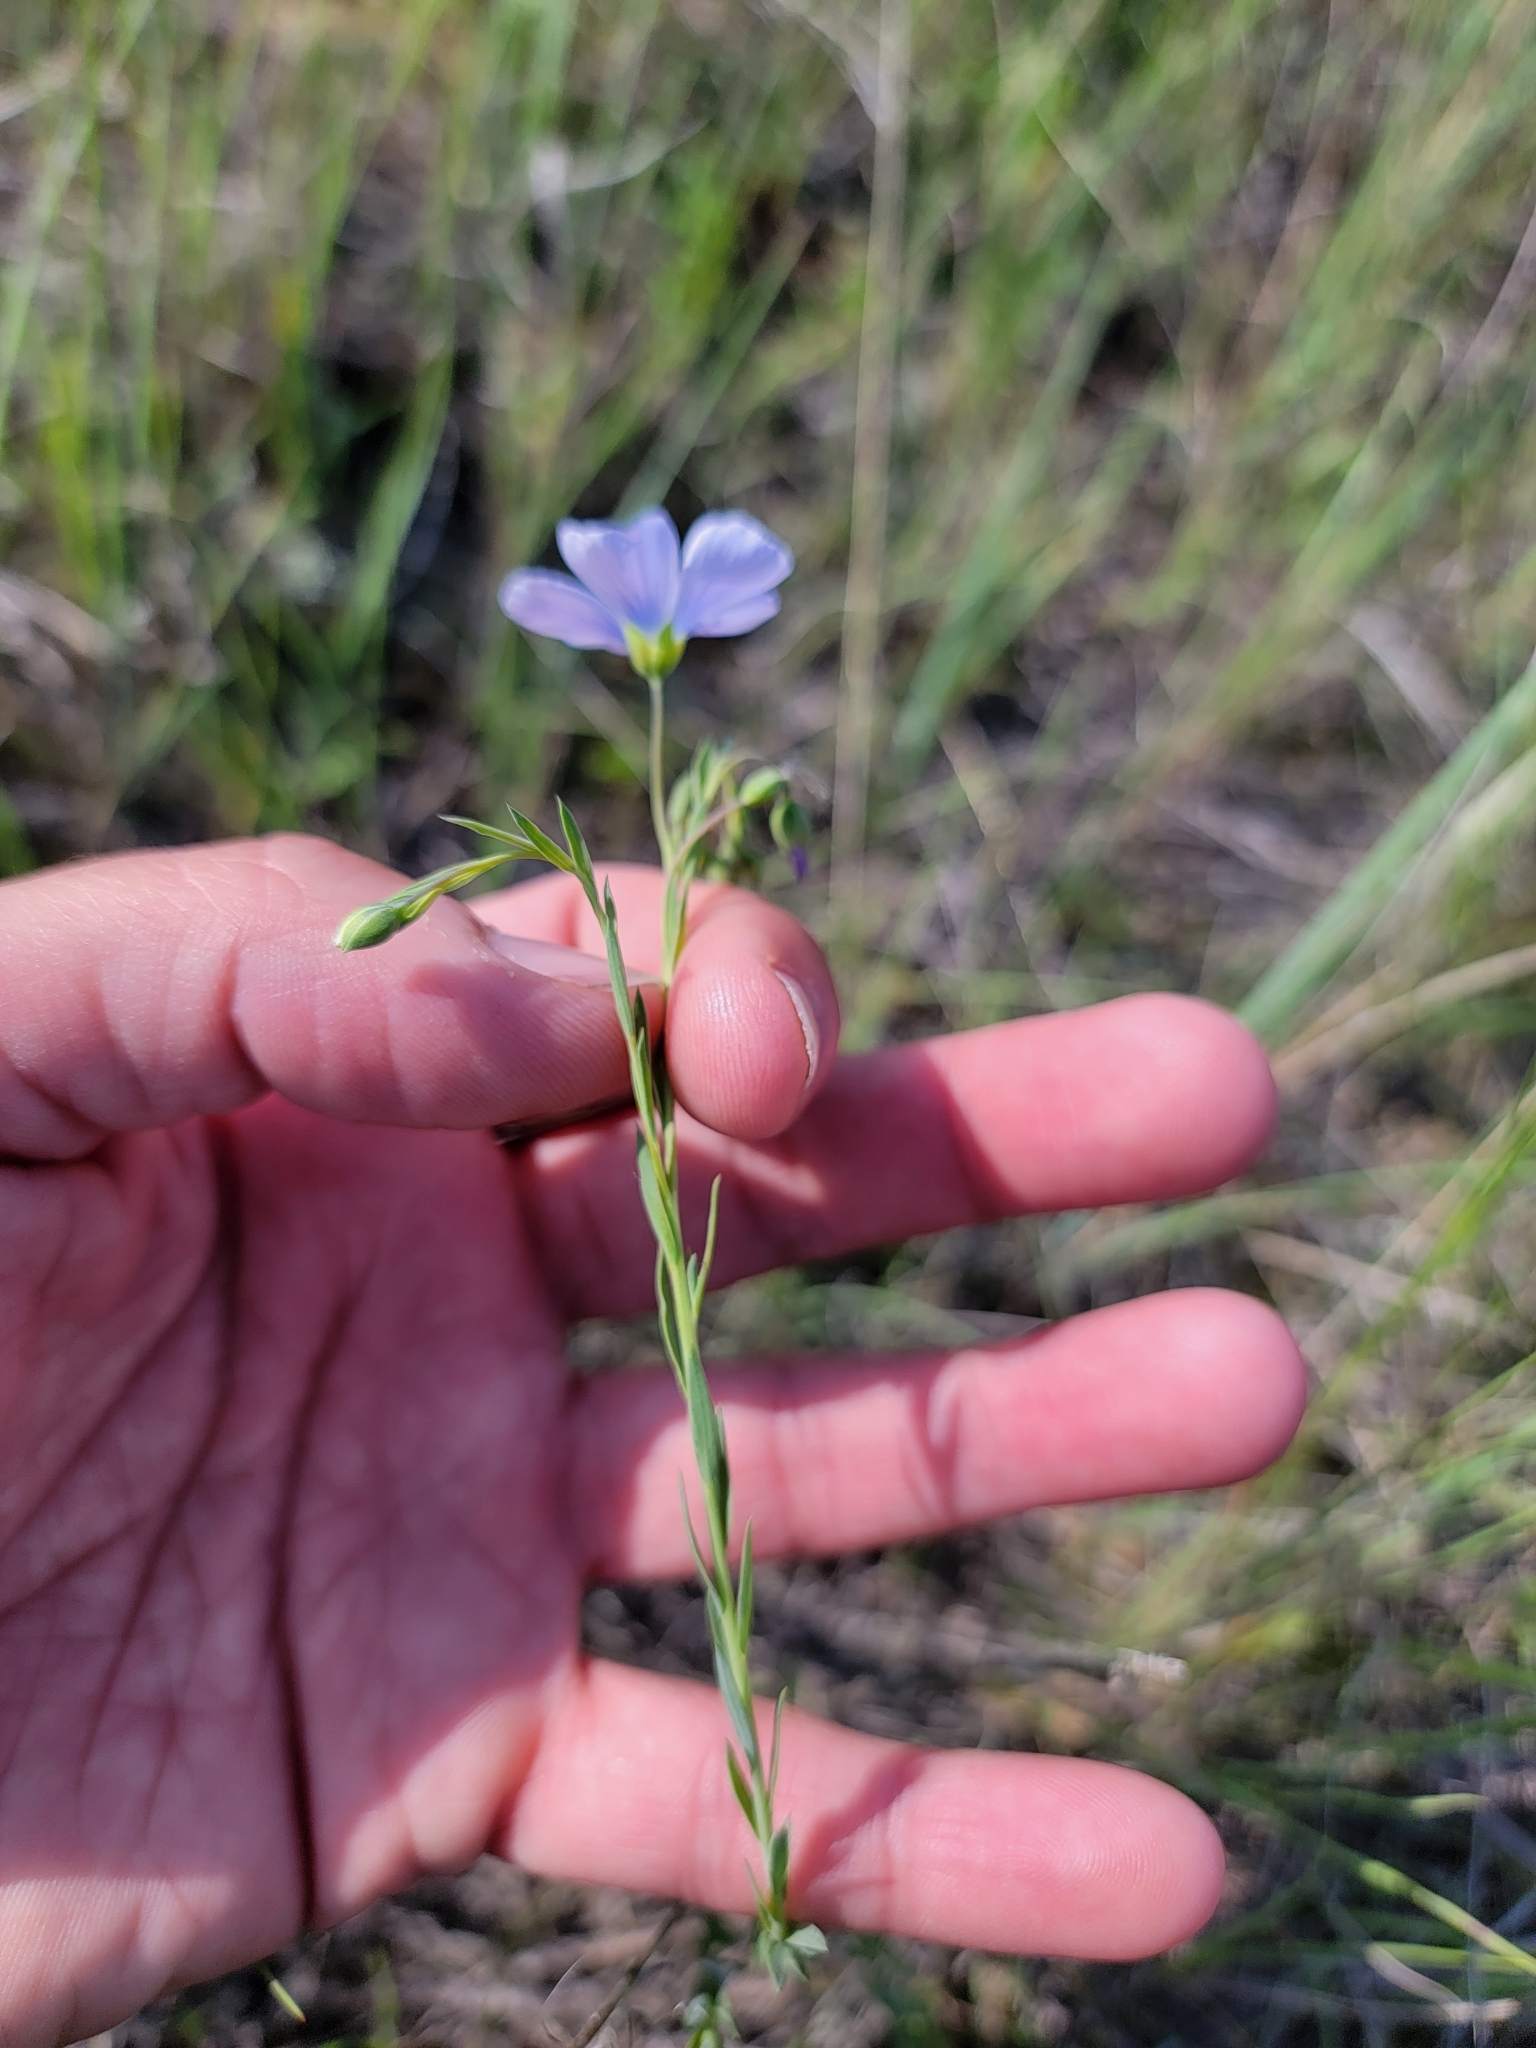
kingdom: Plantae
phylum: Tracheophyta
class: Magnoliopsida
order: Malpighiales
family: Linaceae
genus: Linum
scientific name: Linum lewisii
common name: Prairie flax
